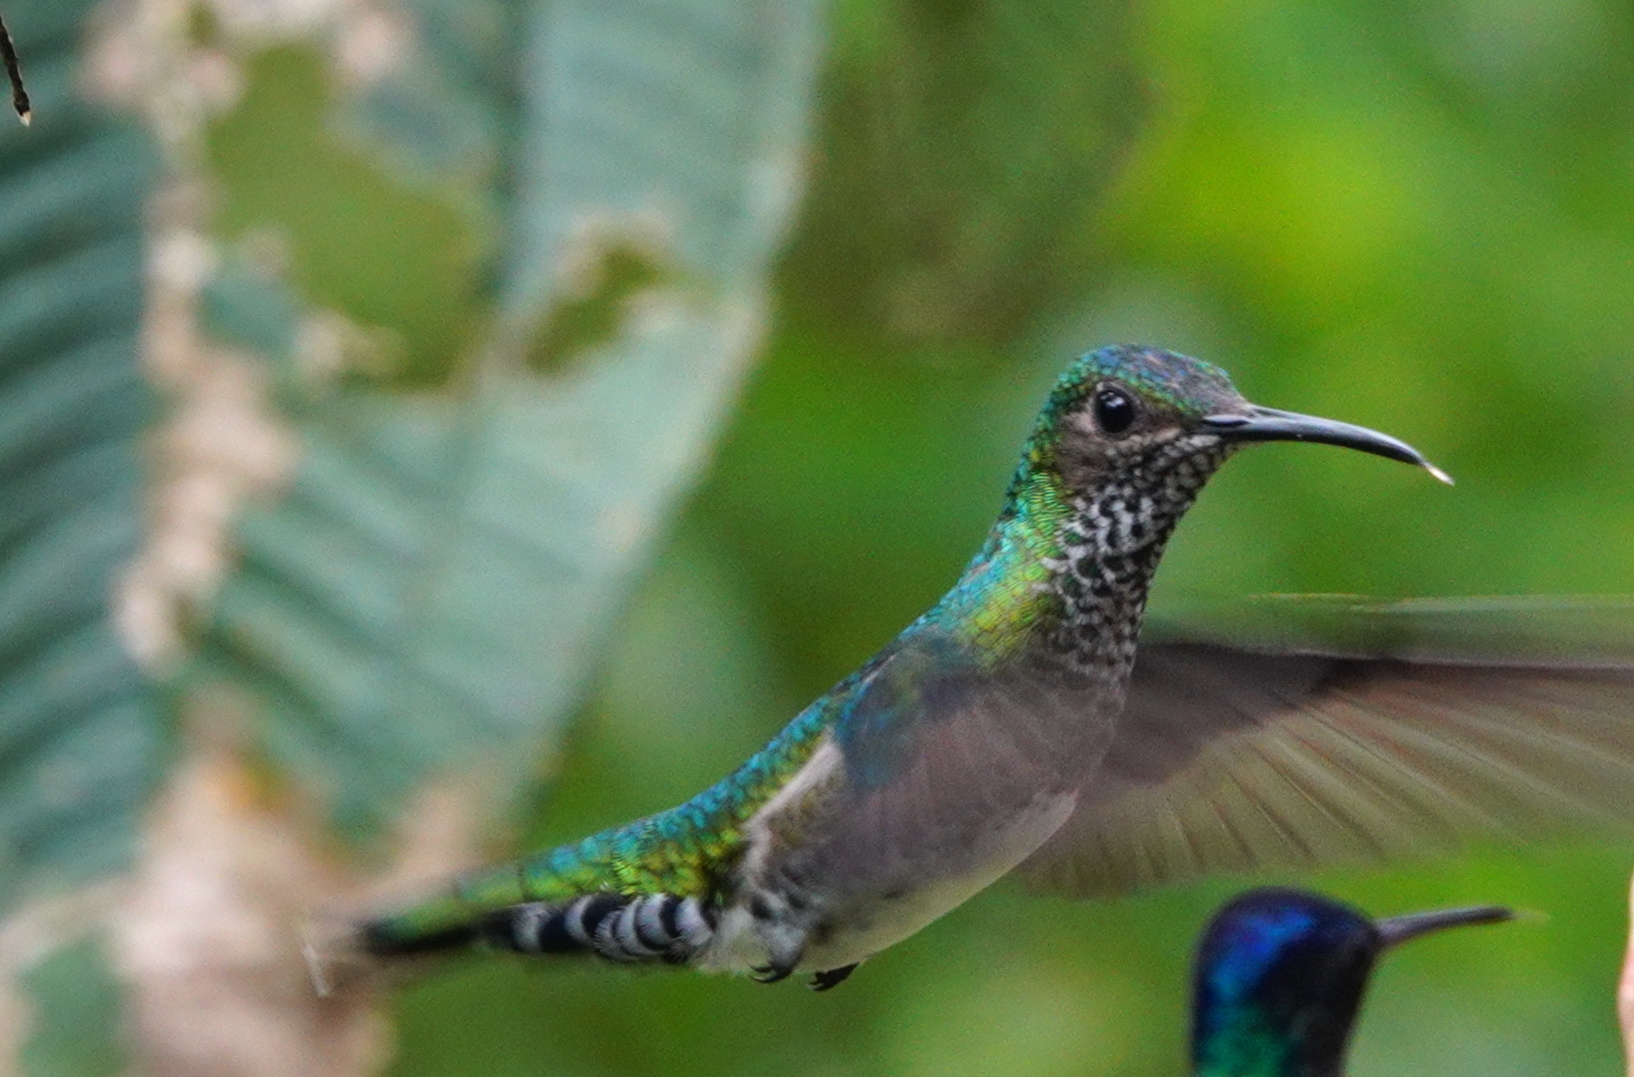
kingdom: Animalia
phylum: Chordata
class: Aves
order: Apodiformes
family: Trochilidae
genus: Florisuga
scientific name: Florisuga mellivora
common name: White-necked jacobin
